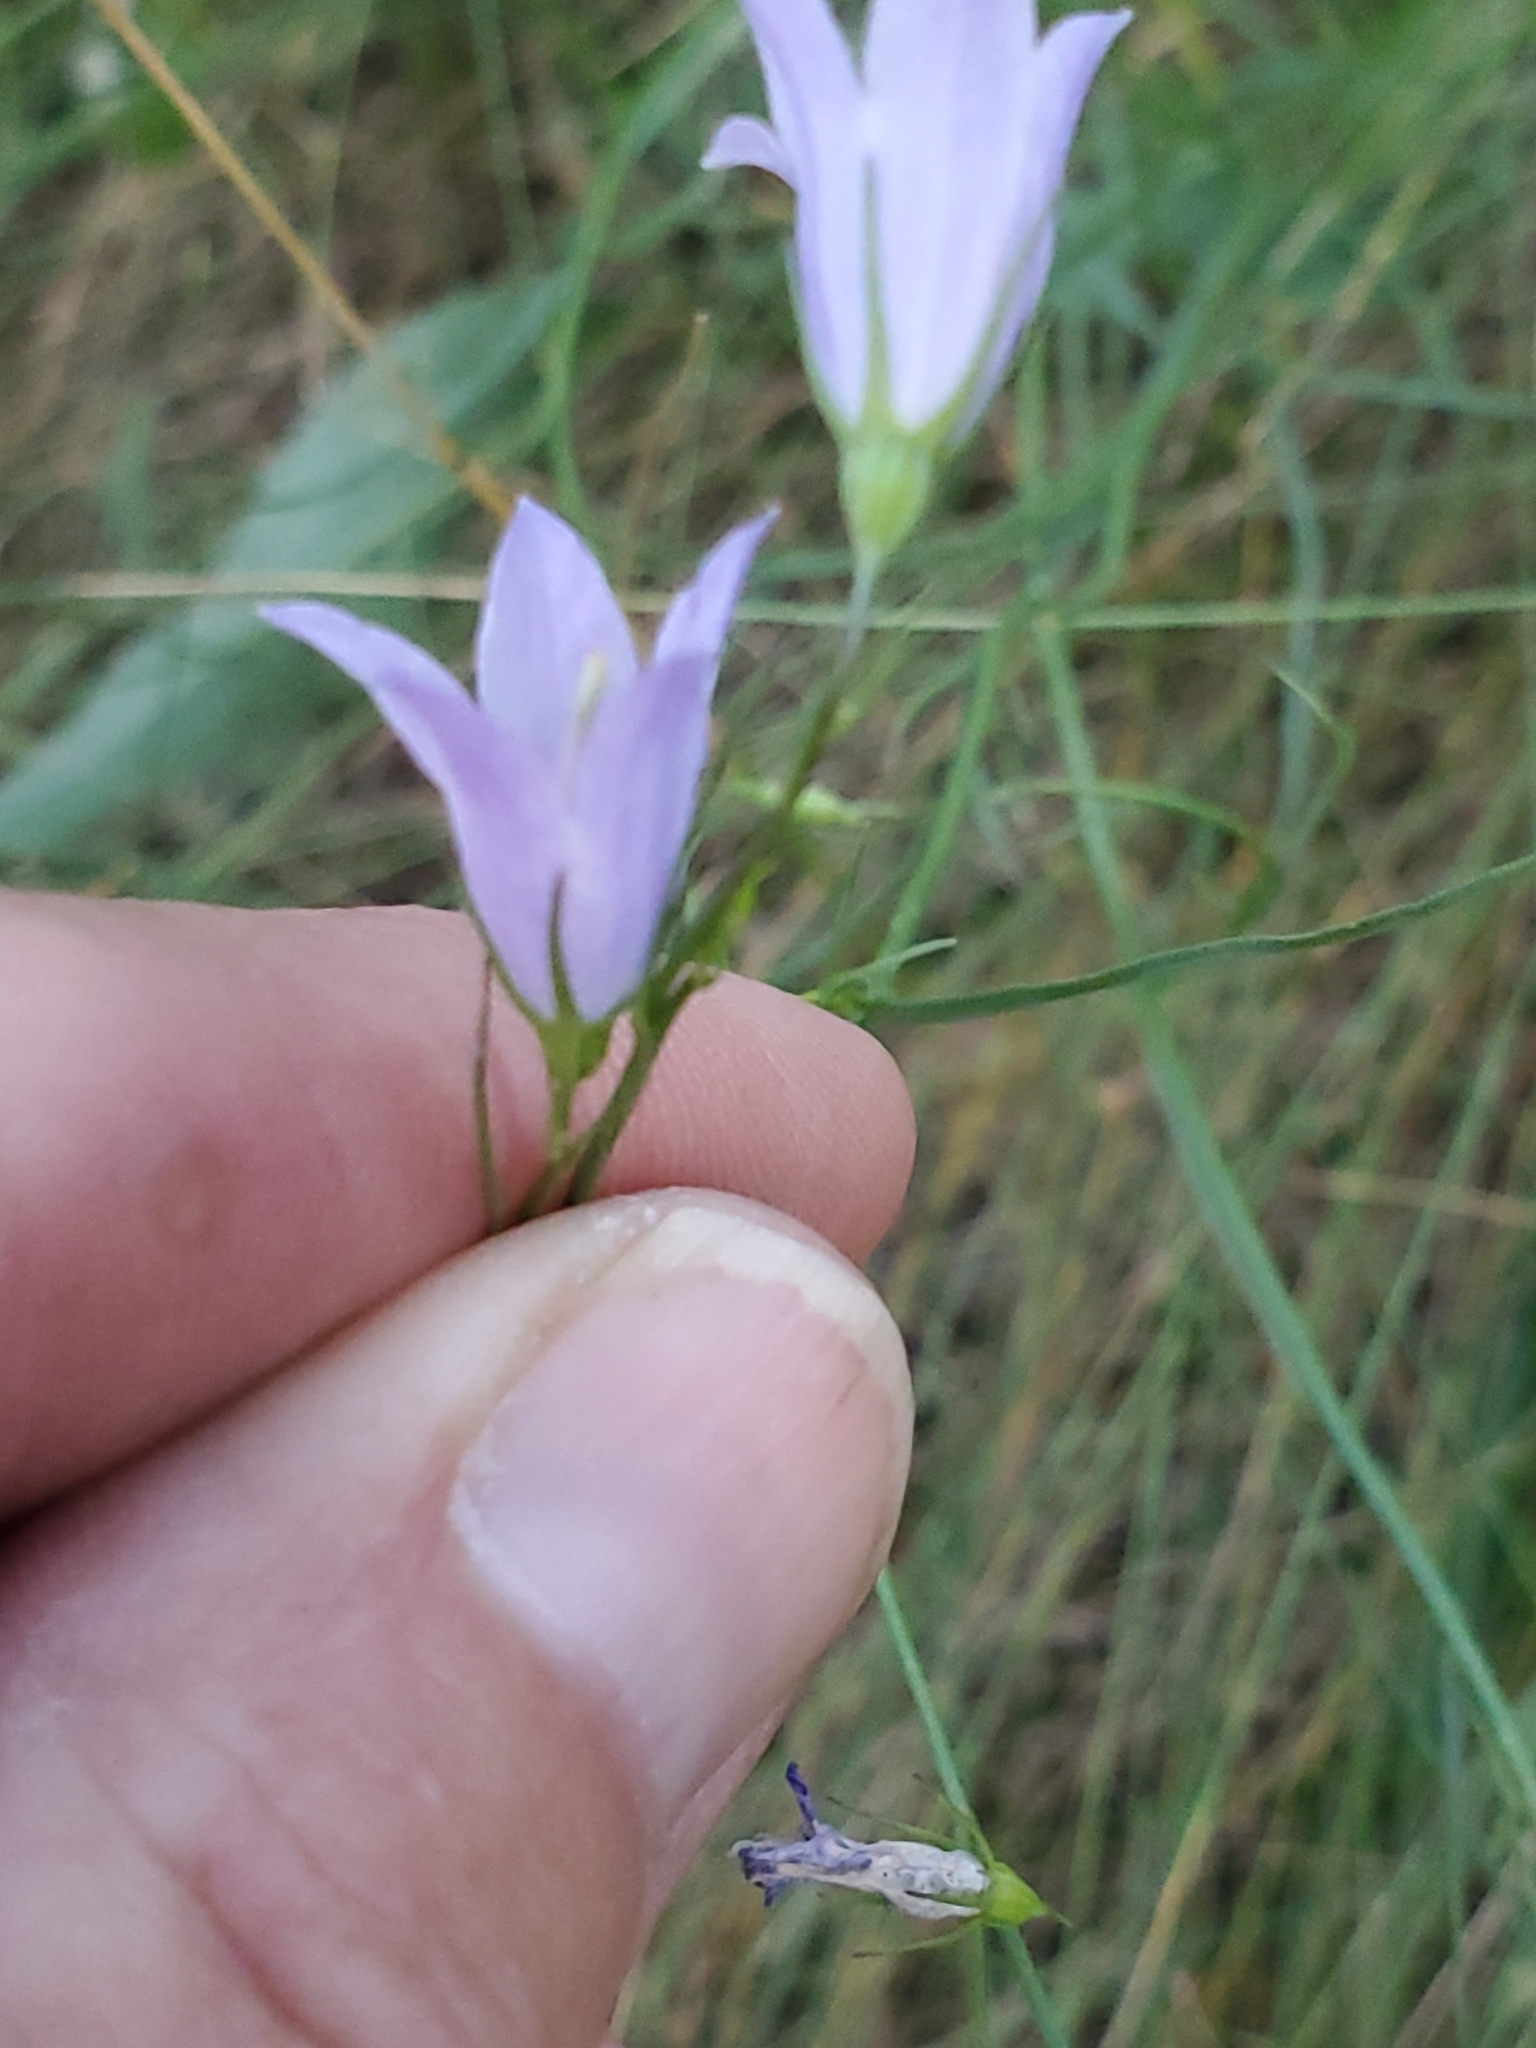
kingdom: Plantae
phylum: Tracheophyta
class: Magnoliopsida
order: Asterales
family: Campanulaceae
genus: Campanula
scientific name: Campanula petiolata
